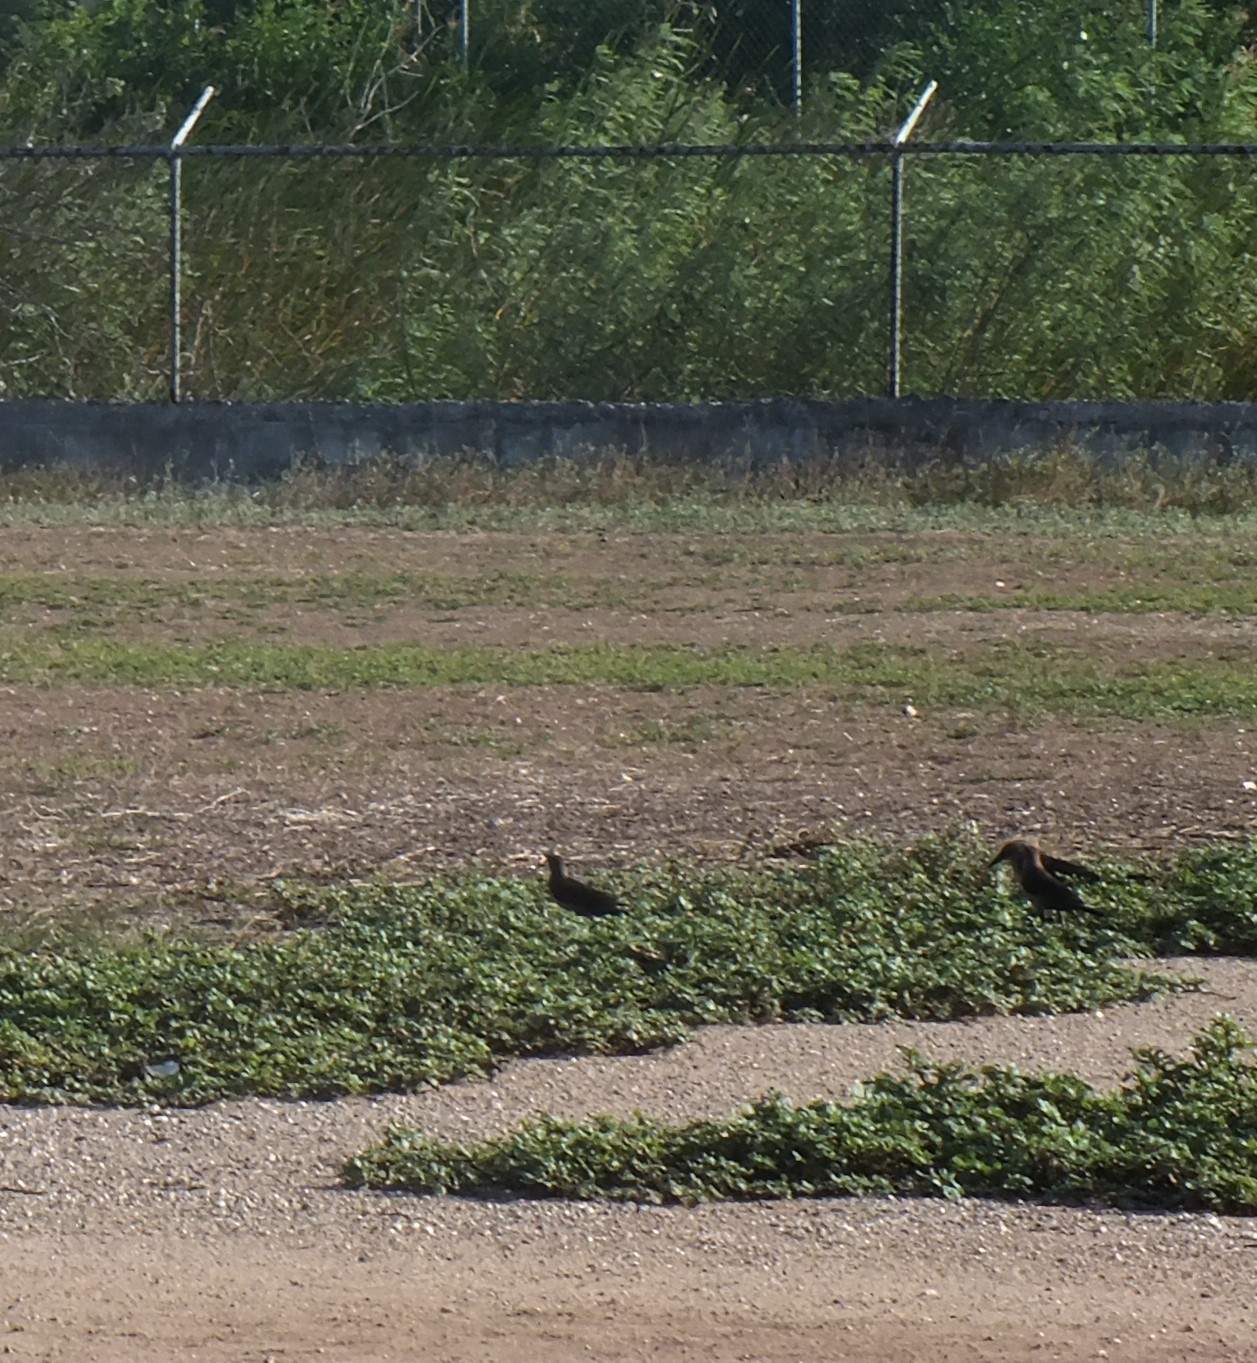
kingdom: Animalia
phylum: Chordata
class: Aves
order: Passeriformes
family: Icteridae
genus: Quiscalus
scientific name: Quiscalus mexicanus
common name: Great-tailed grackle
